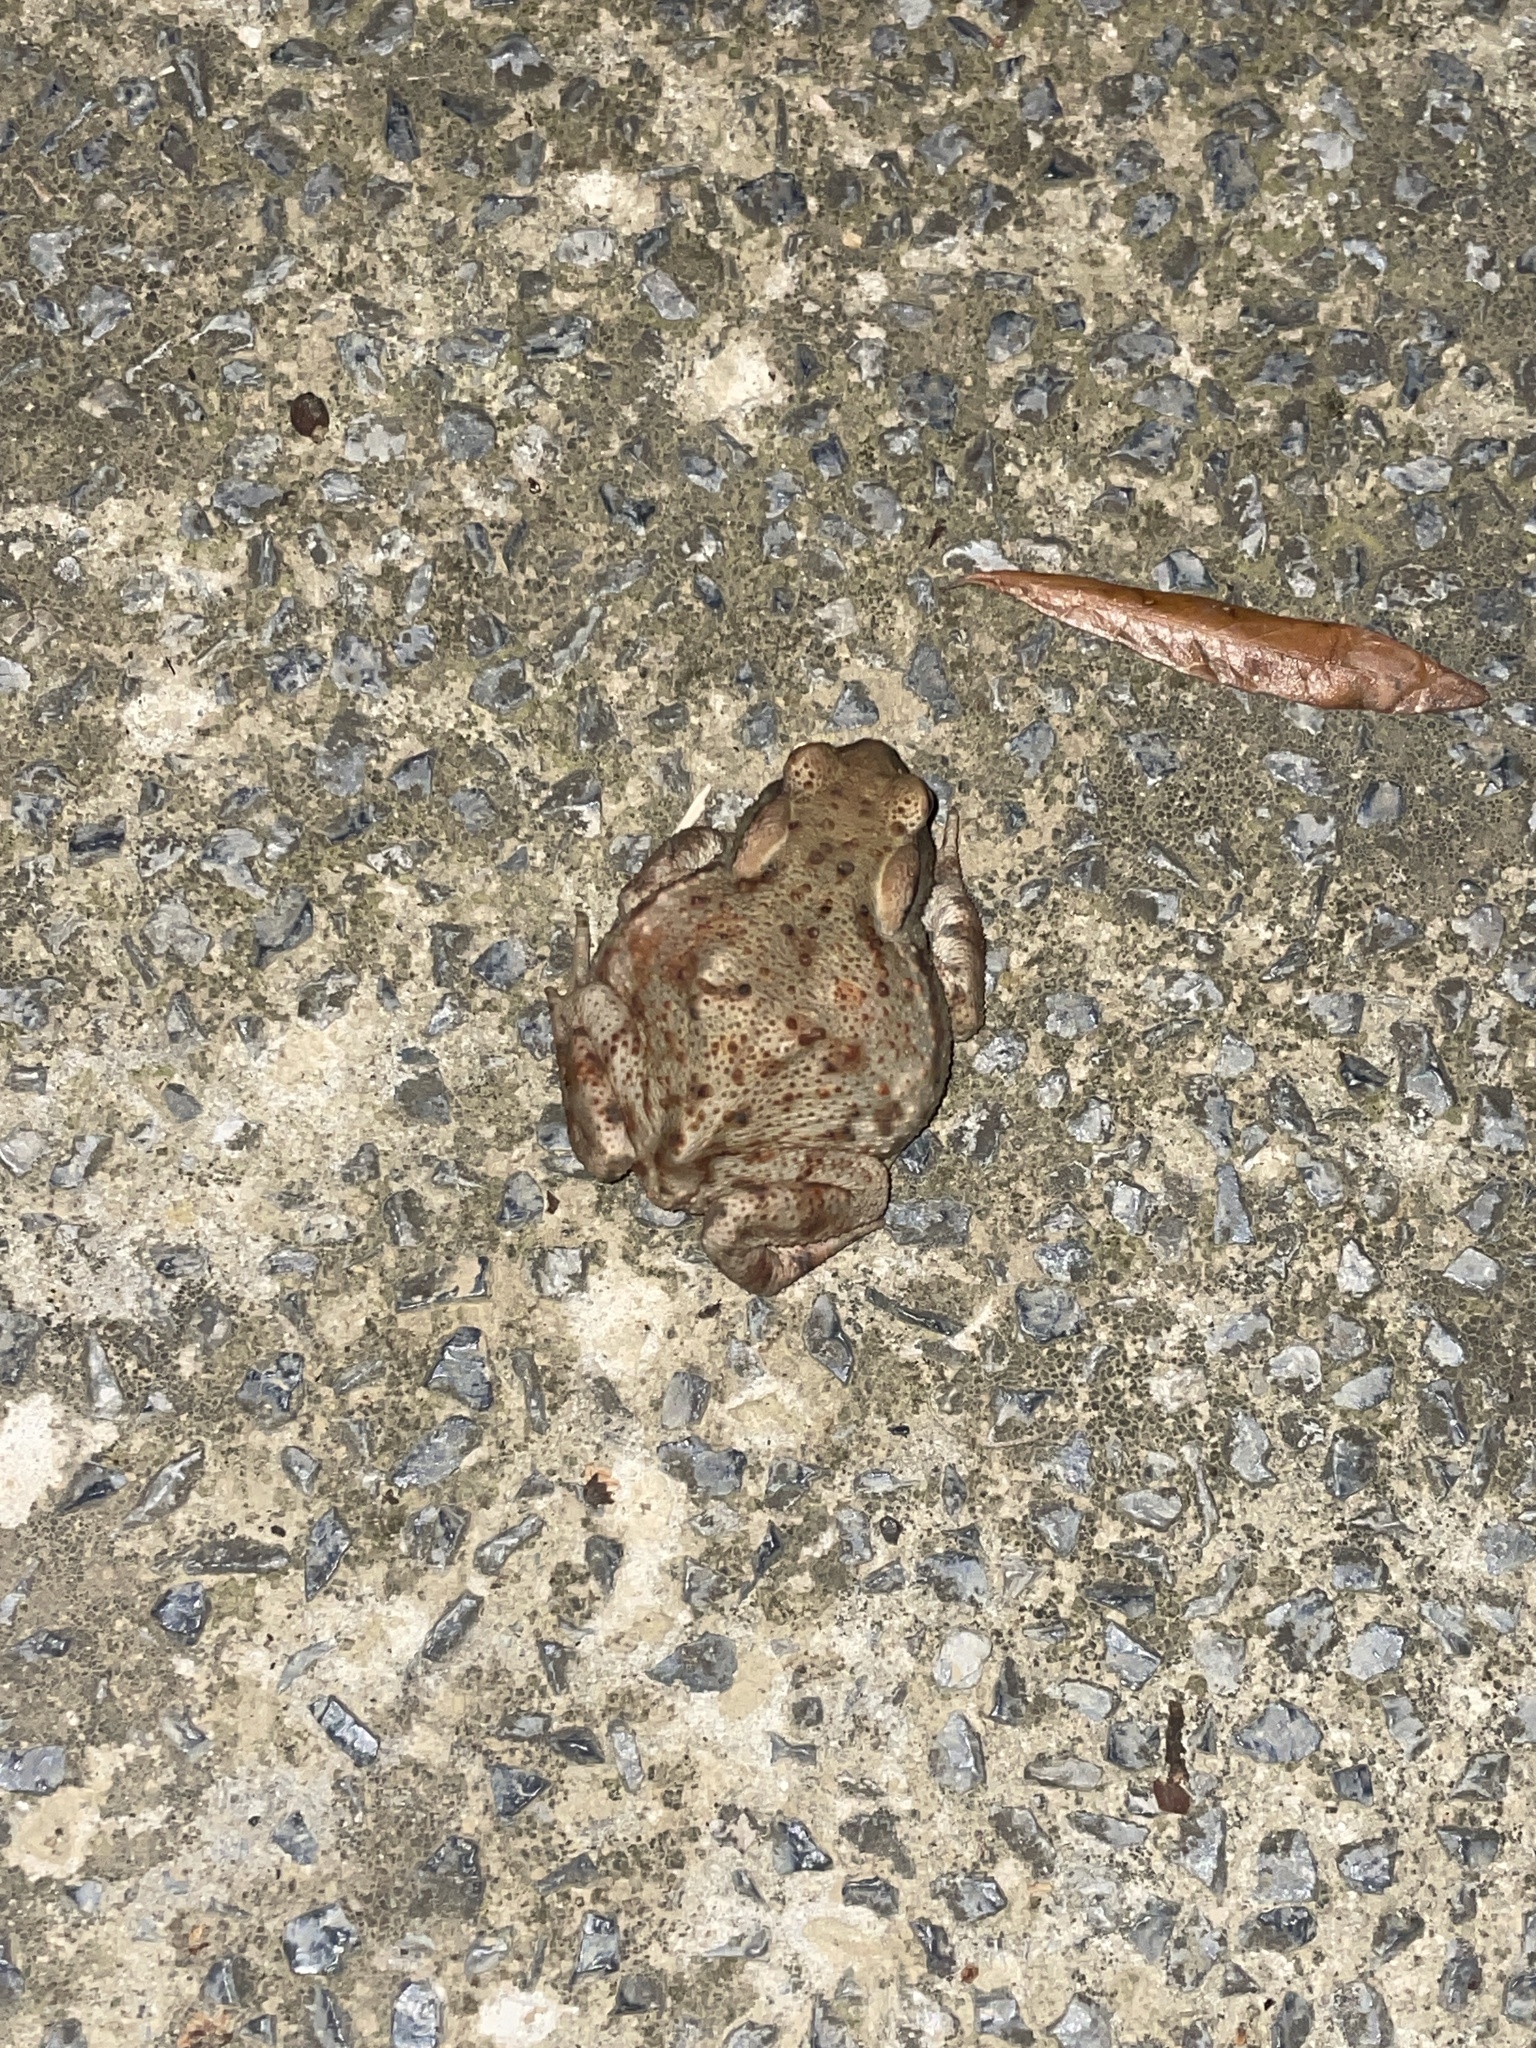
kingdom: Animalia
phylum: Chordata
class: Amphibia
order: Anura
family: Bufonidae
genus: Bufo
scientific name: Bufo bufo
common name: Common toad
